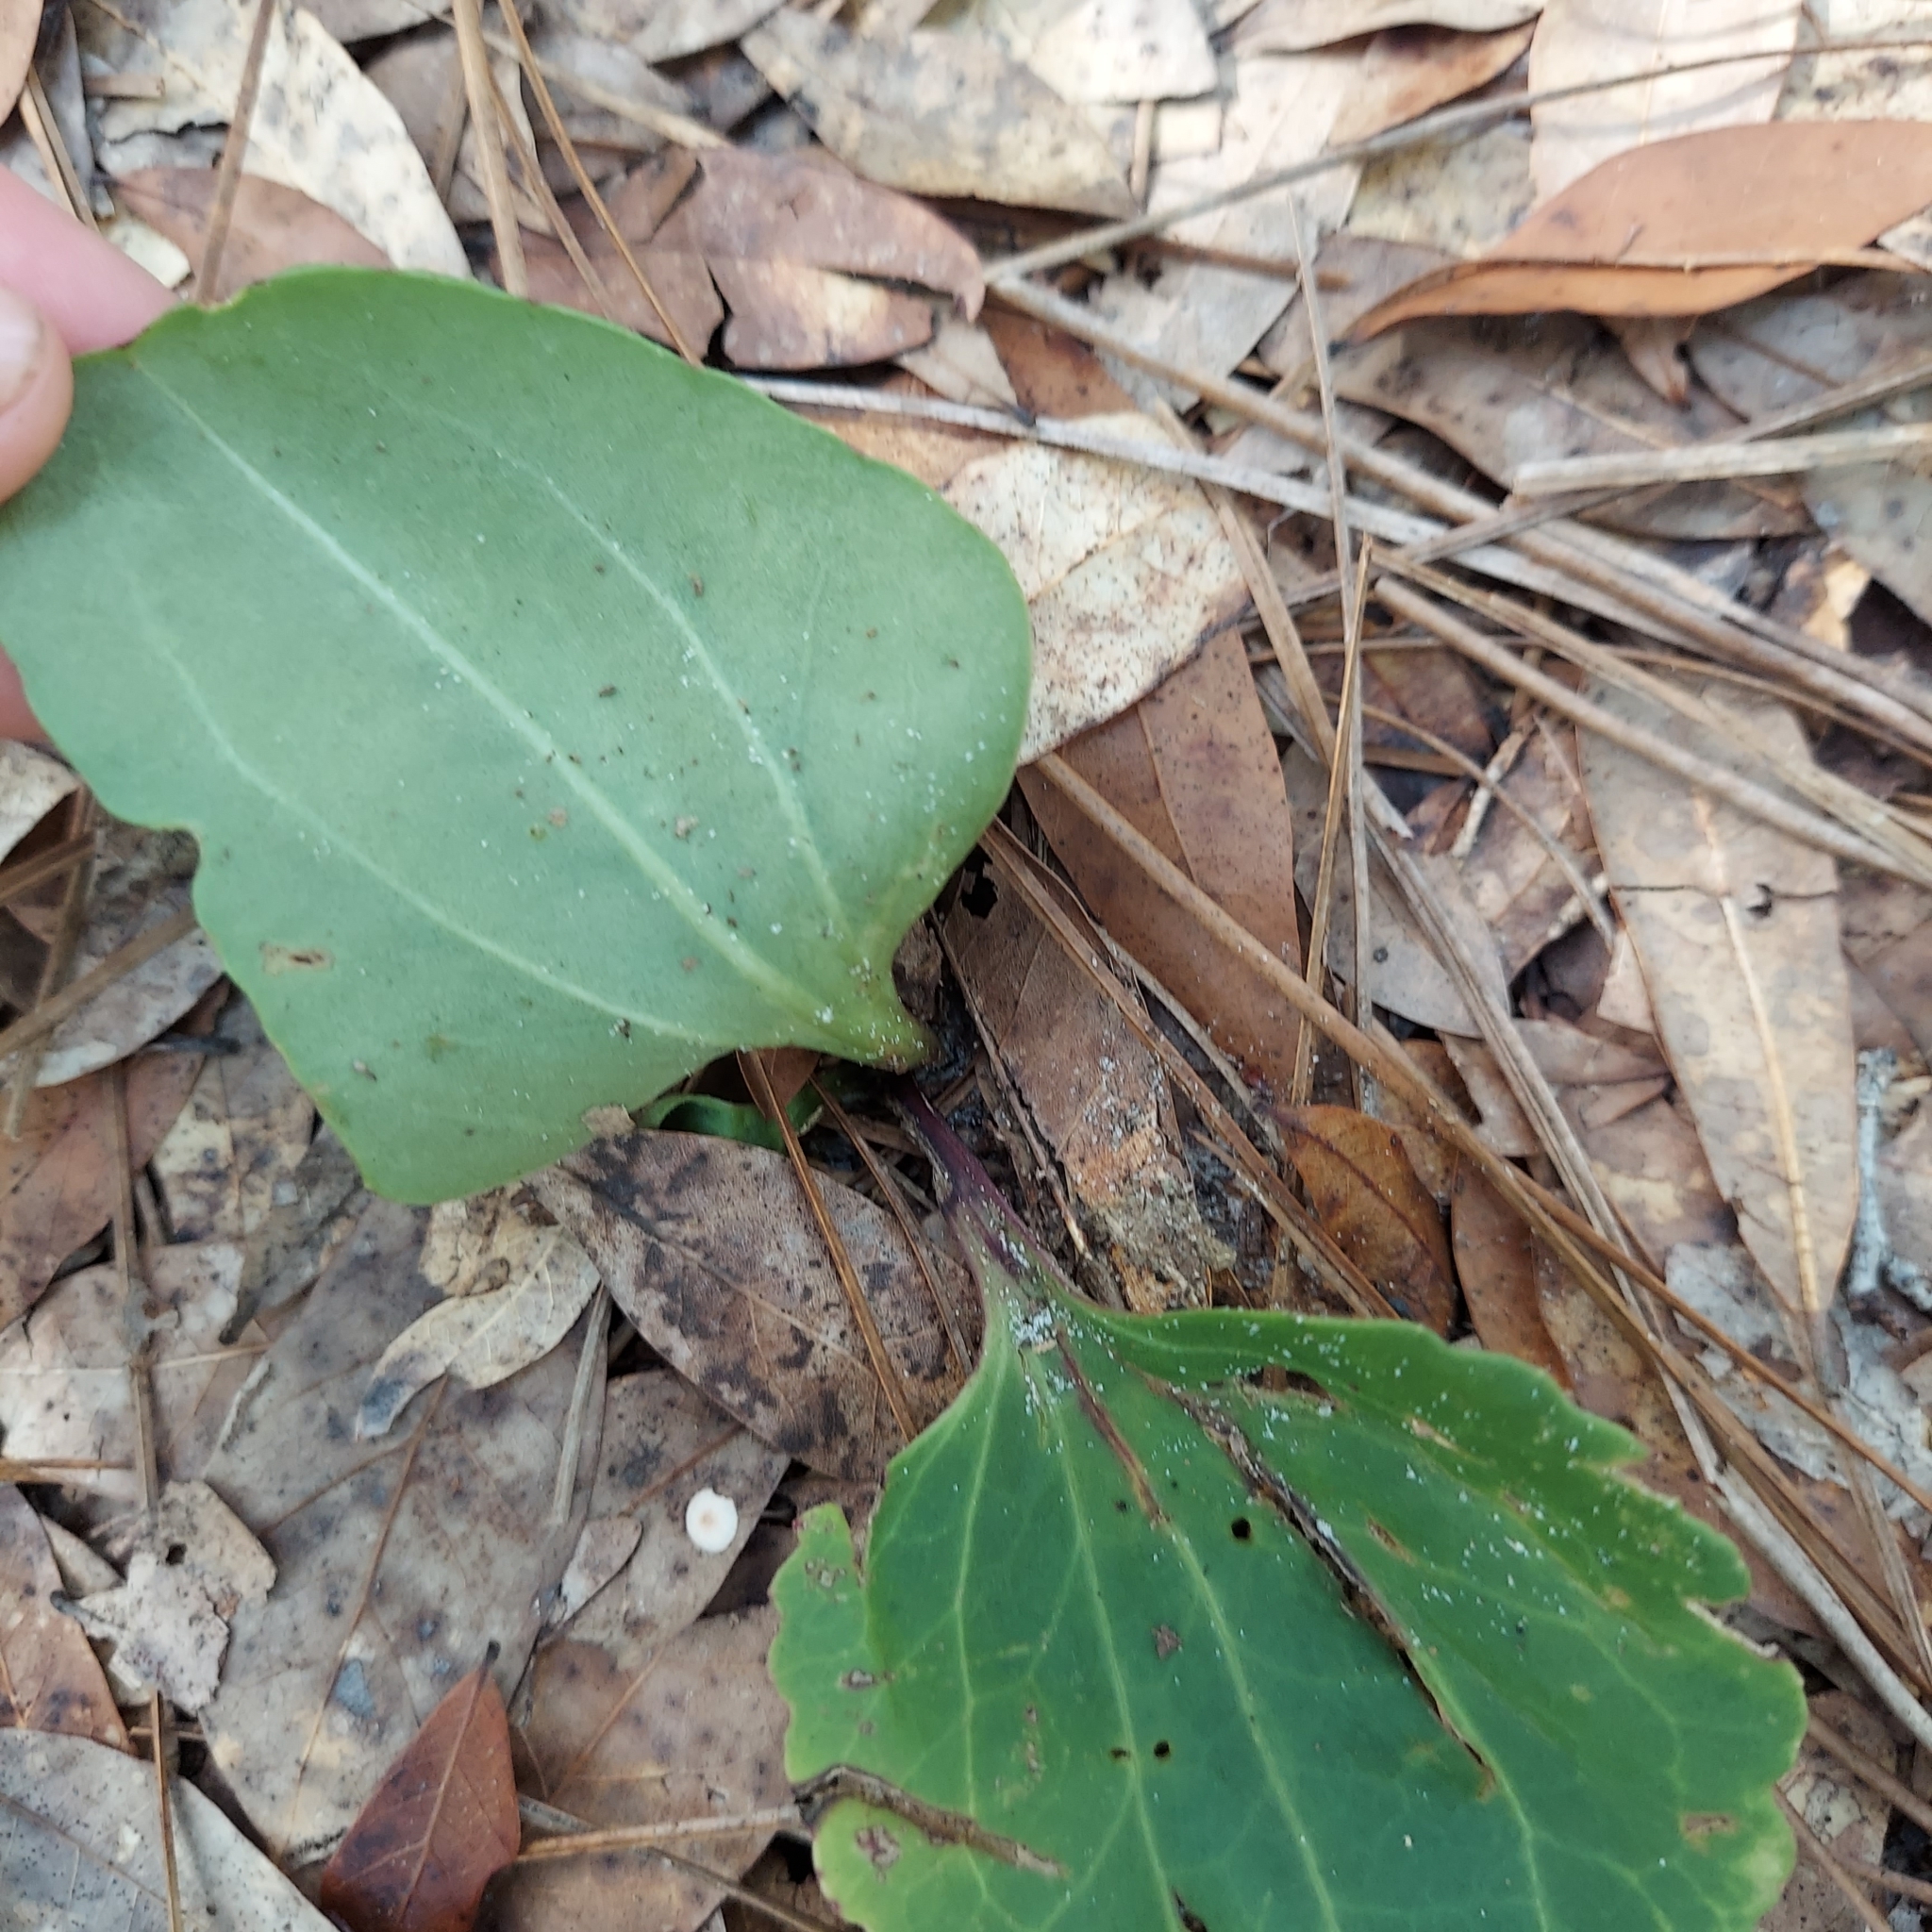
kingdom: Plantae
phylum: Tracheophyta
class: Magnoliopsida
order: Asterales
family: Asteraceae
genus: Arnoglossum
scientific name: Arnoglossum floridanum
